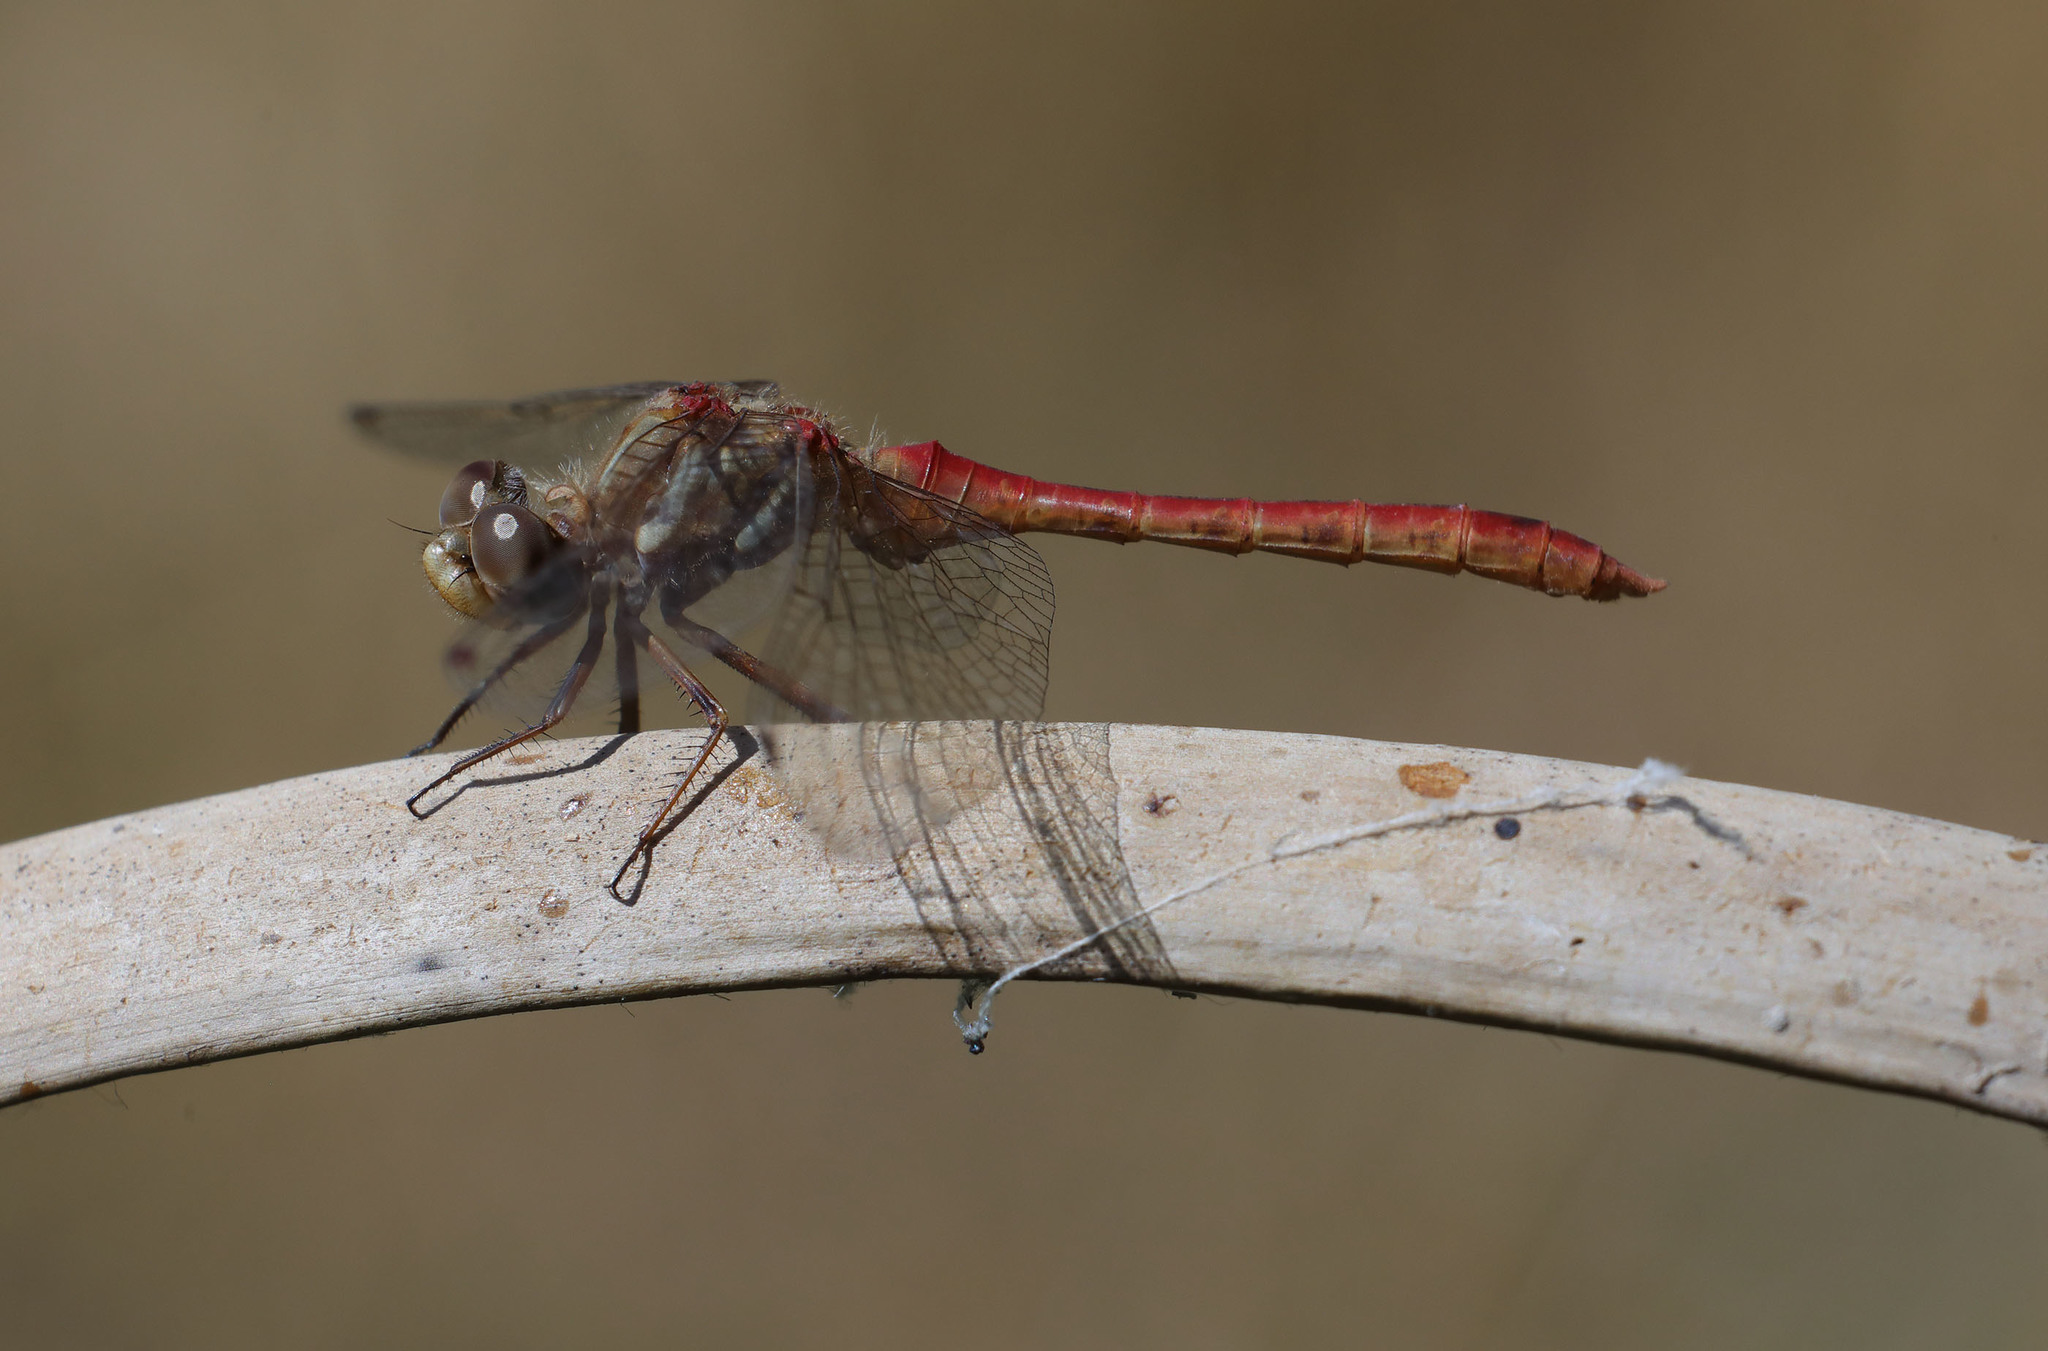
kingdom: Animalia
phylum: Arthropoda
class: Insecta
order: Odonata
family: Libellulidae
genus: Sympetrum
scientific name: Sympetrum pallipes
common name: Striped meadowhawk
